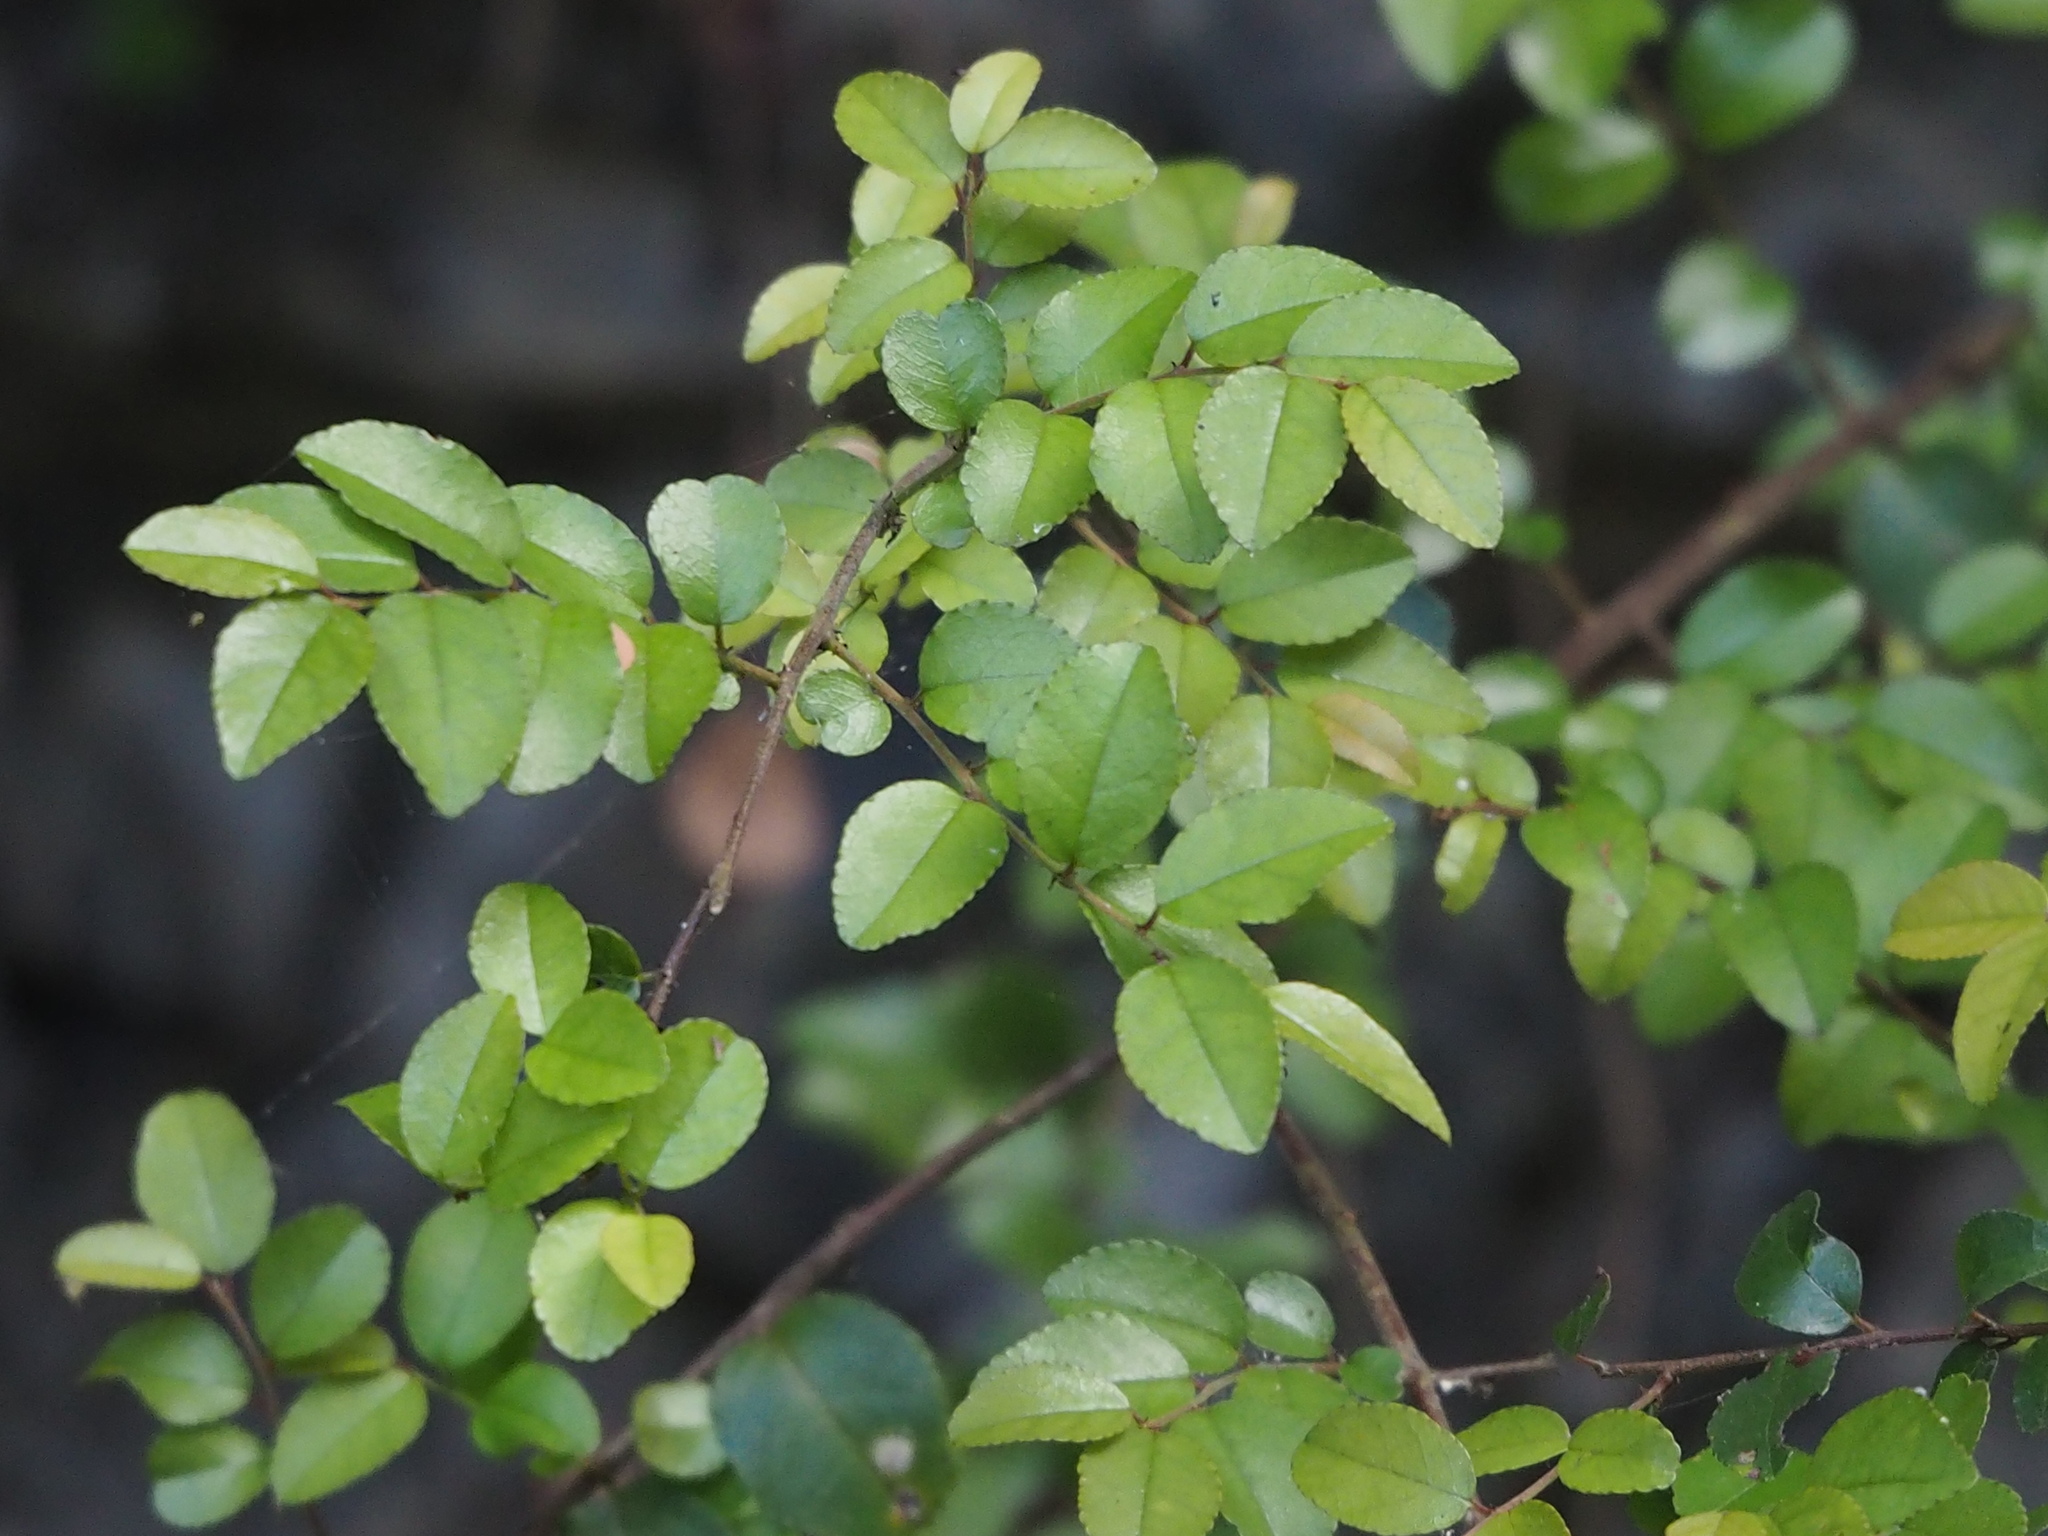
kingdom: Plantae
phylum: Tracheophyta
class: Magnoliopsida
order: Rosales
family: Rhamnaceae
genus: Sageretia
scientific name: Sageretia thea
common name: Pauper's-tea
